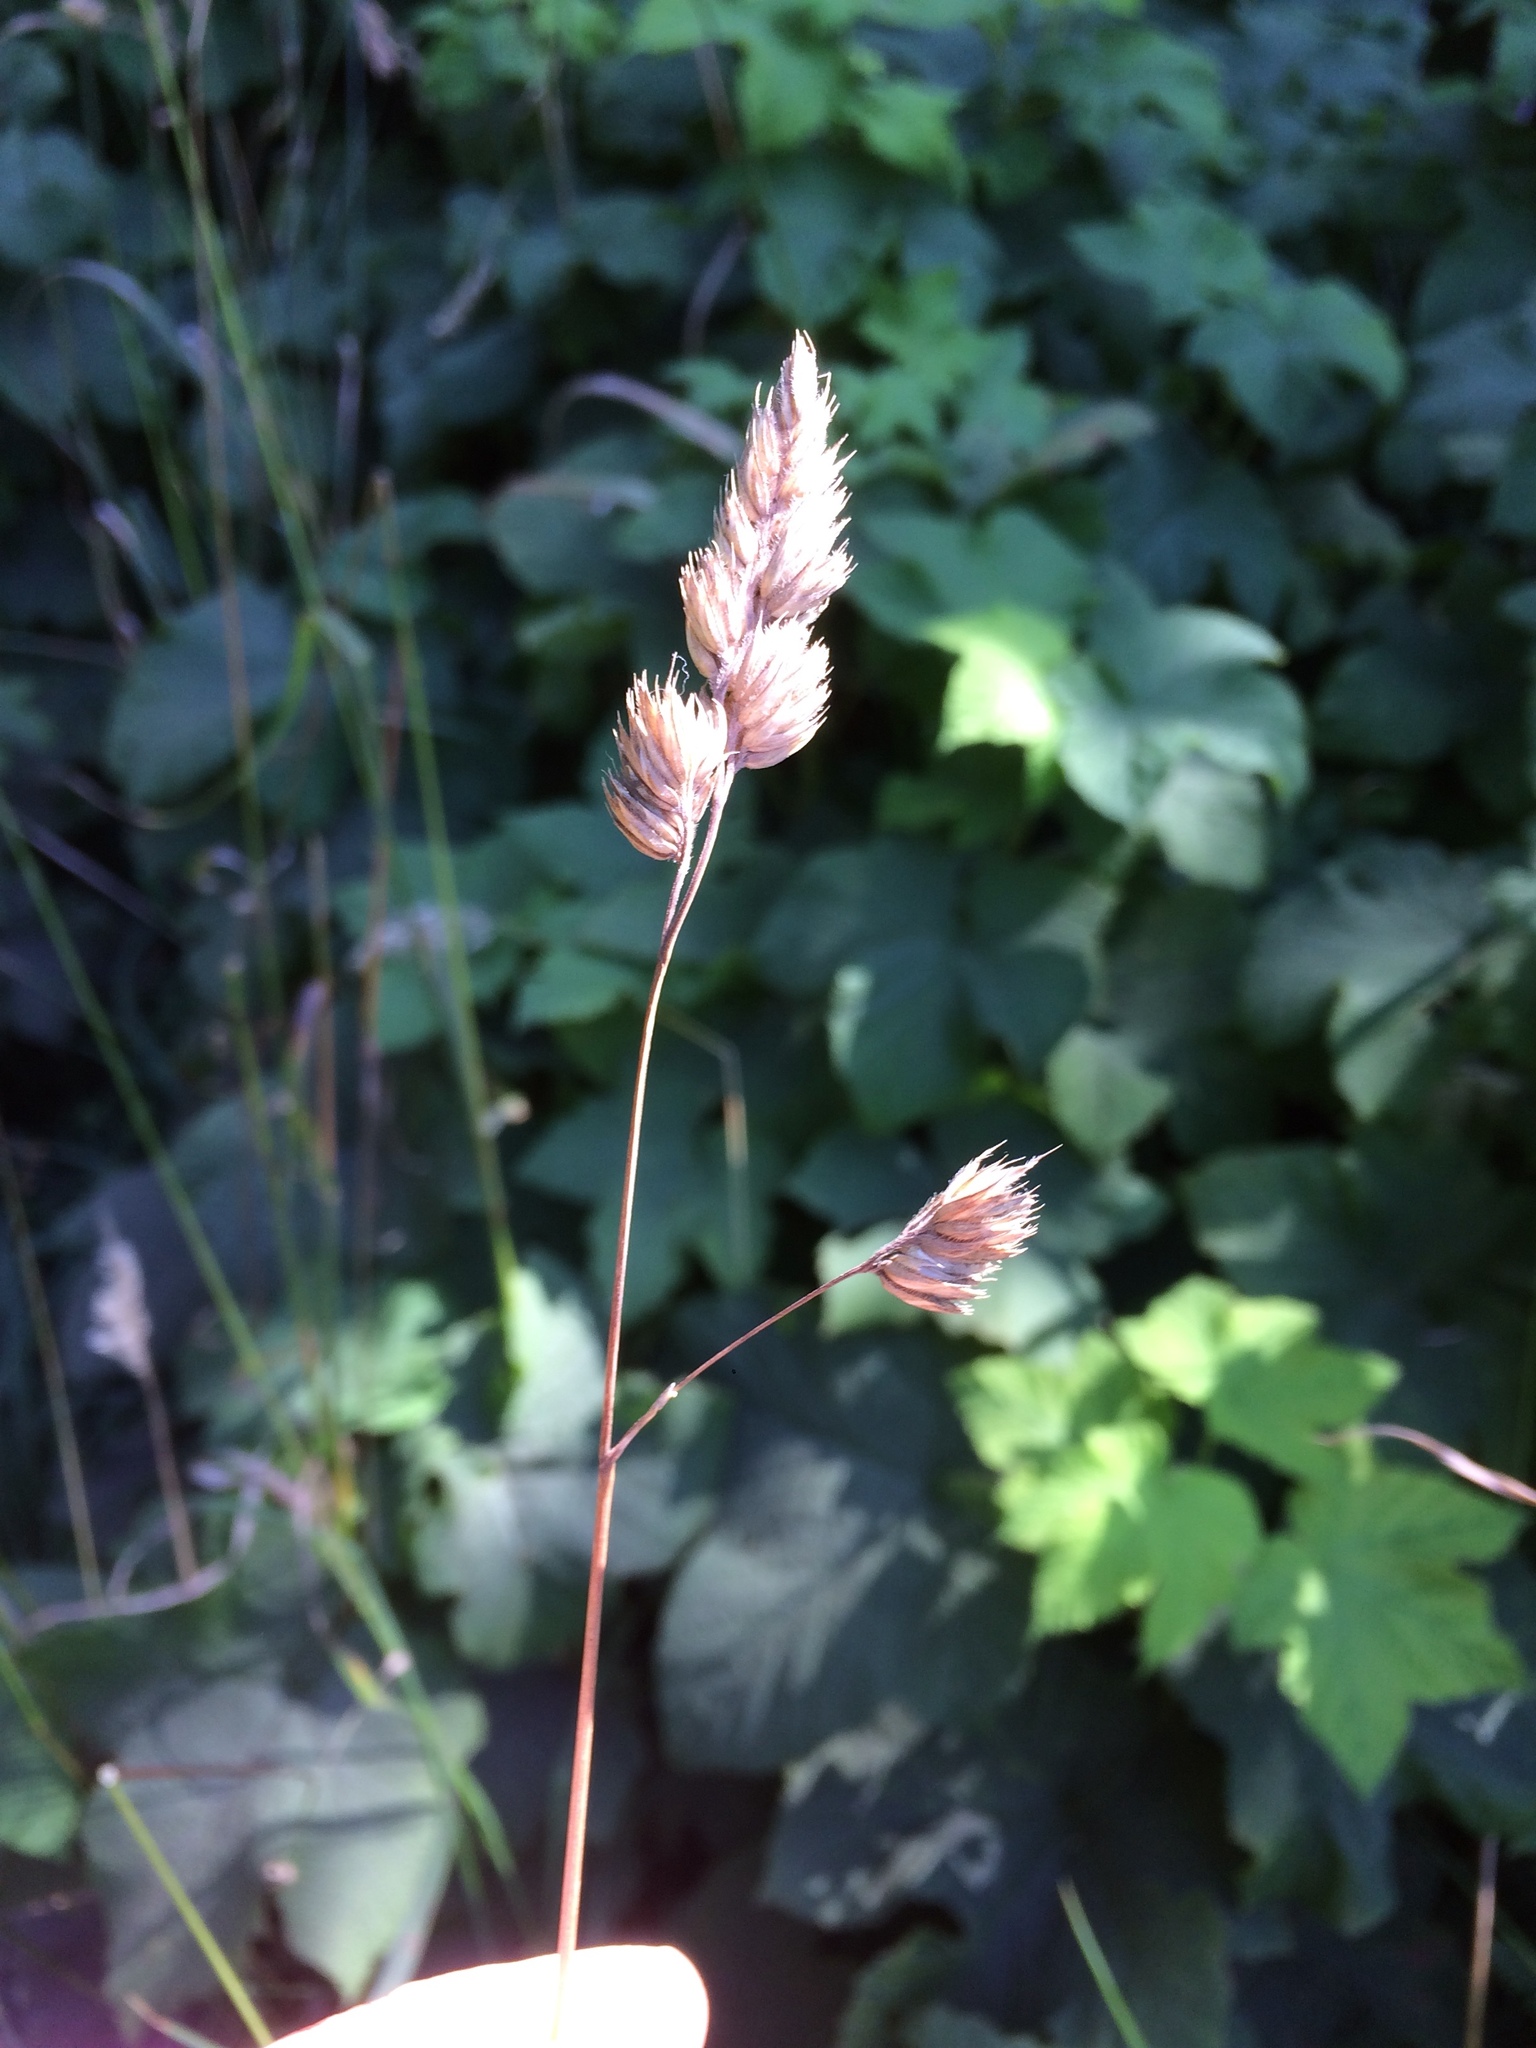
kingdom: Plantae
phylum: Tracheophyta
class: Liliopsida
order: Poales
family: Poaceae
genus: Dactylis
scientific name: Dactylis glomerata
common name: Orchardgrass
